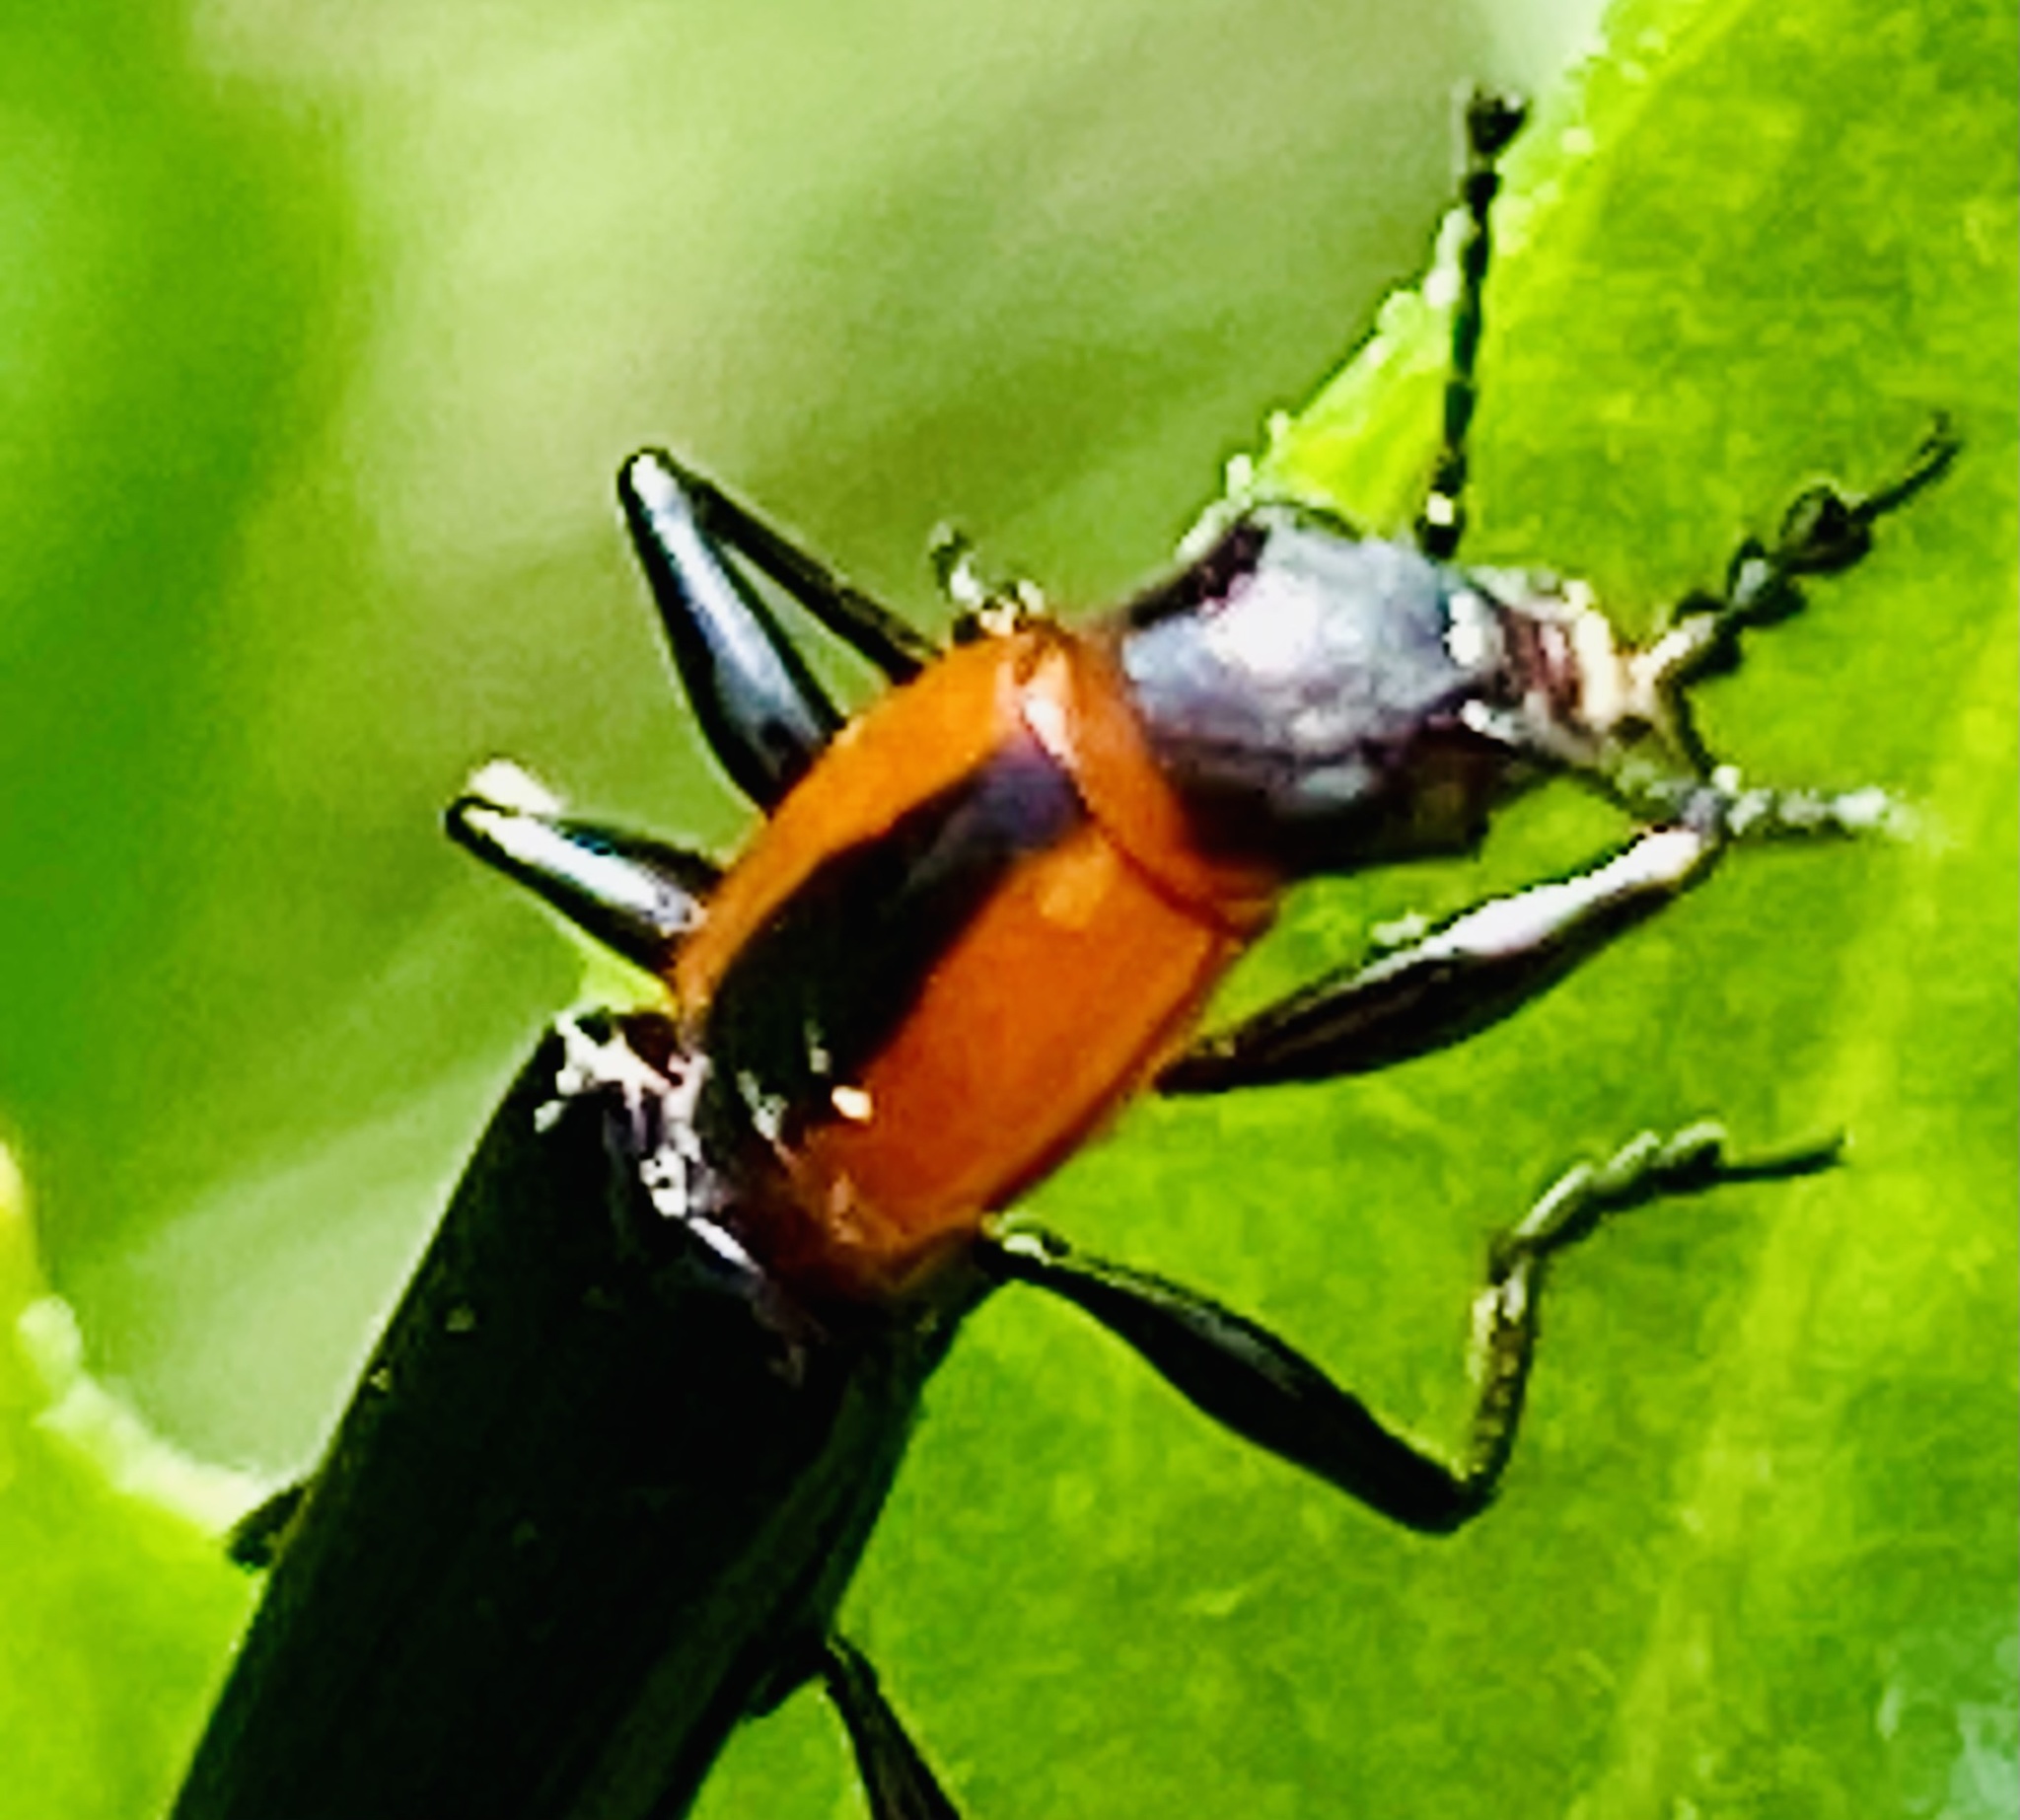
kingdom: Animalia
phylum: Arthropoda
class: Insecta
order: Coleoptera
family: Erotylidae
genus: Acropteroxys
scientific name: Acropteroxys gracilis
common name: Slender lizard beetle
